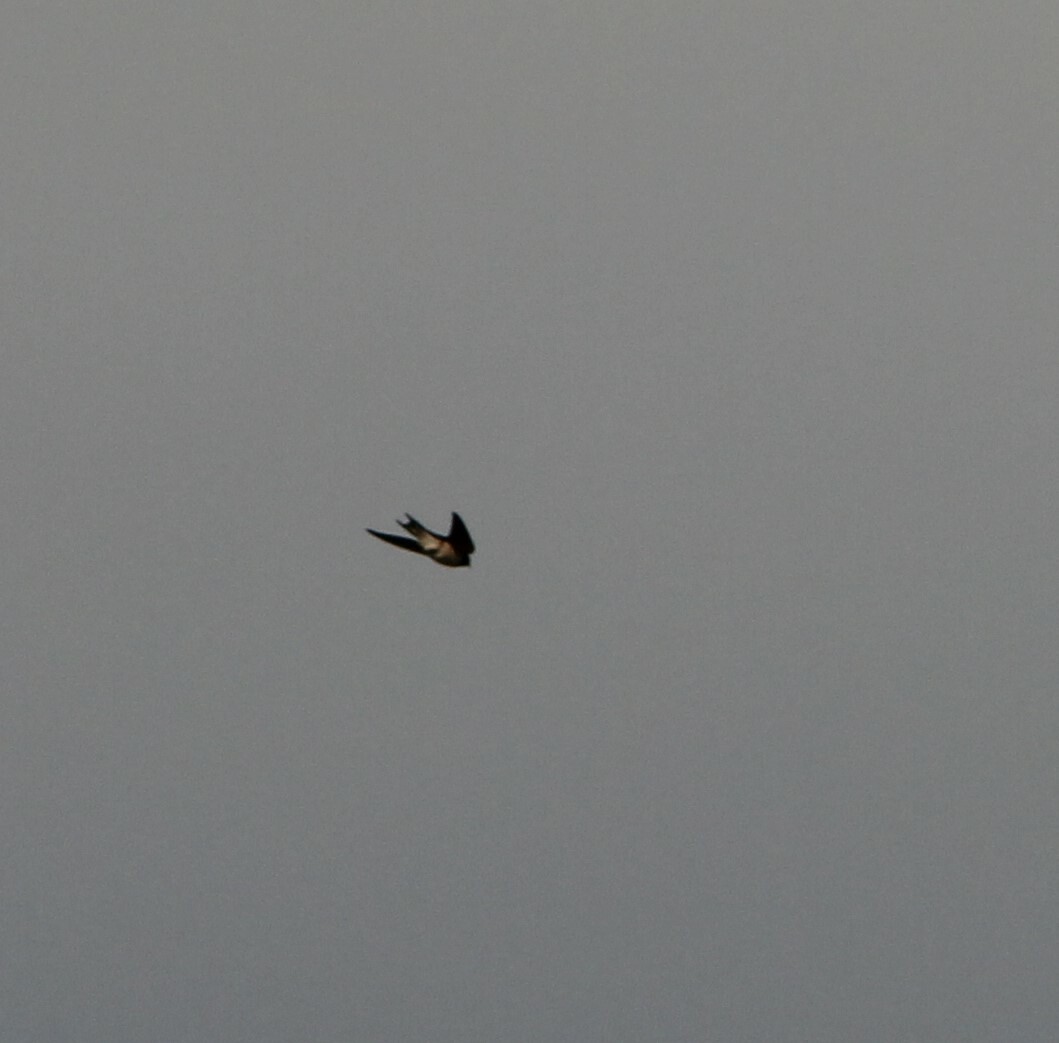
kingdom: Animalia
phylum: Chordata
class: Aves
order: Passeriformes
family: Hirundinidae
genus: Hirundo
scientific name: Hirundo rustica
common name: Barn swallow
